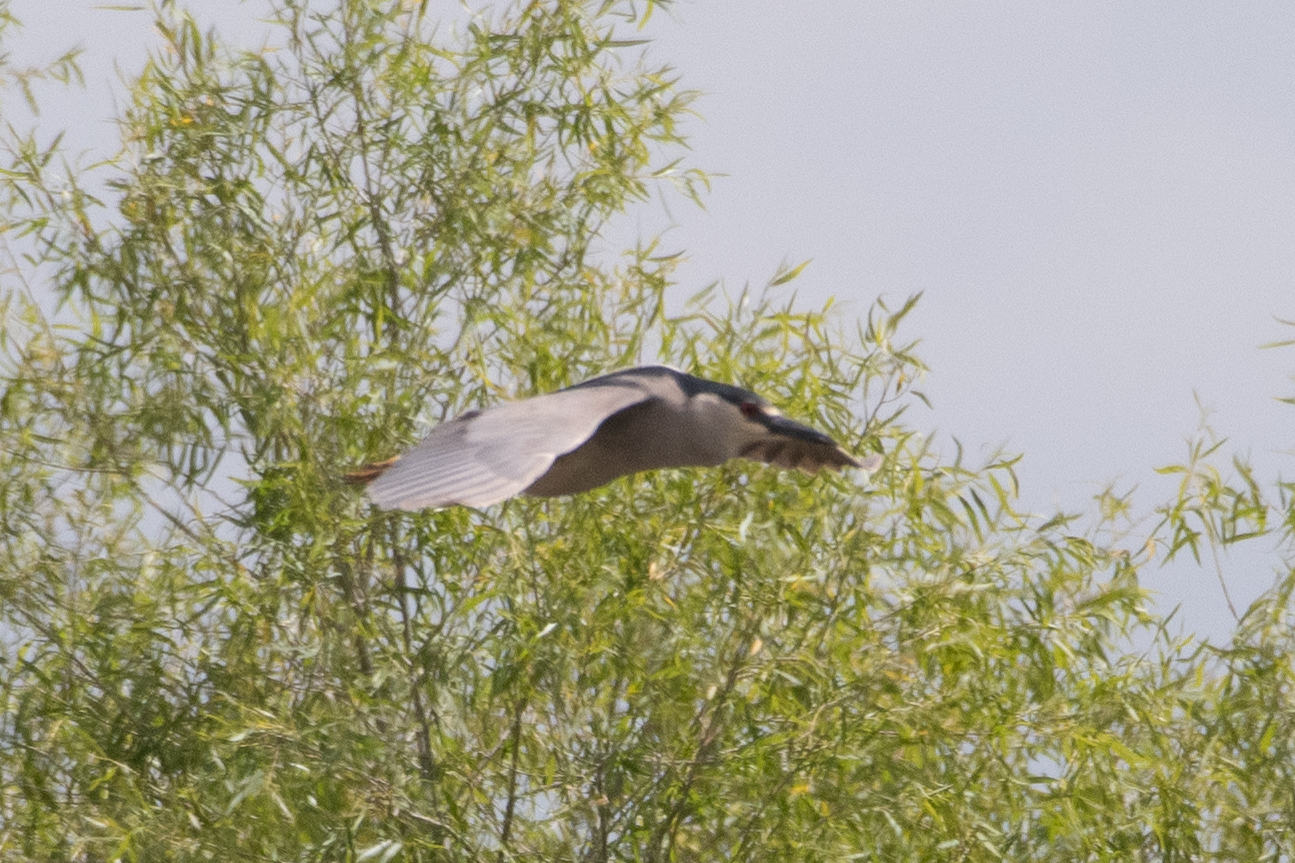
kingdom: Animalia
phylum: Chordata
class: Aves
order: Pelecaniformes
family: Ardeidae
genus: Nycticorax
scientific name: Nycticorax nycticorax
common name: Black-crowned night heron
